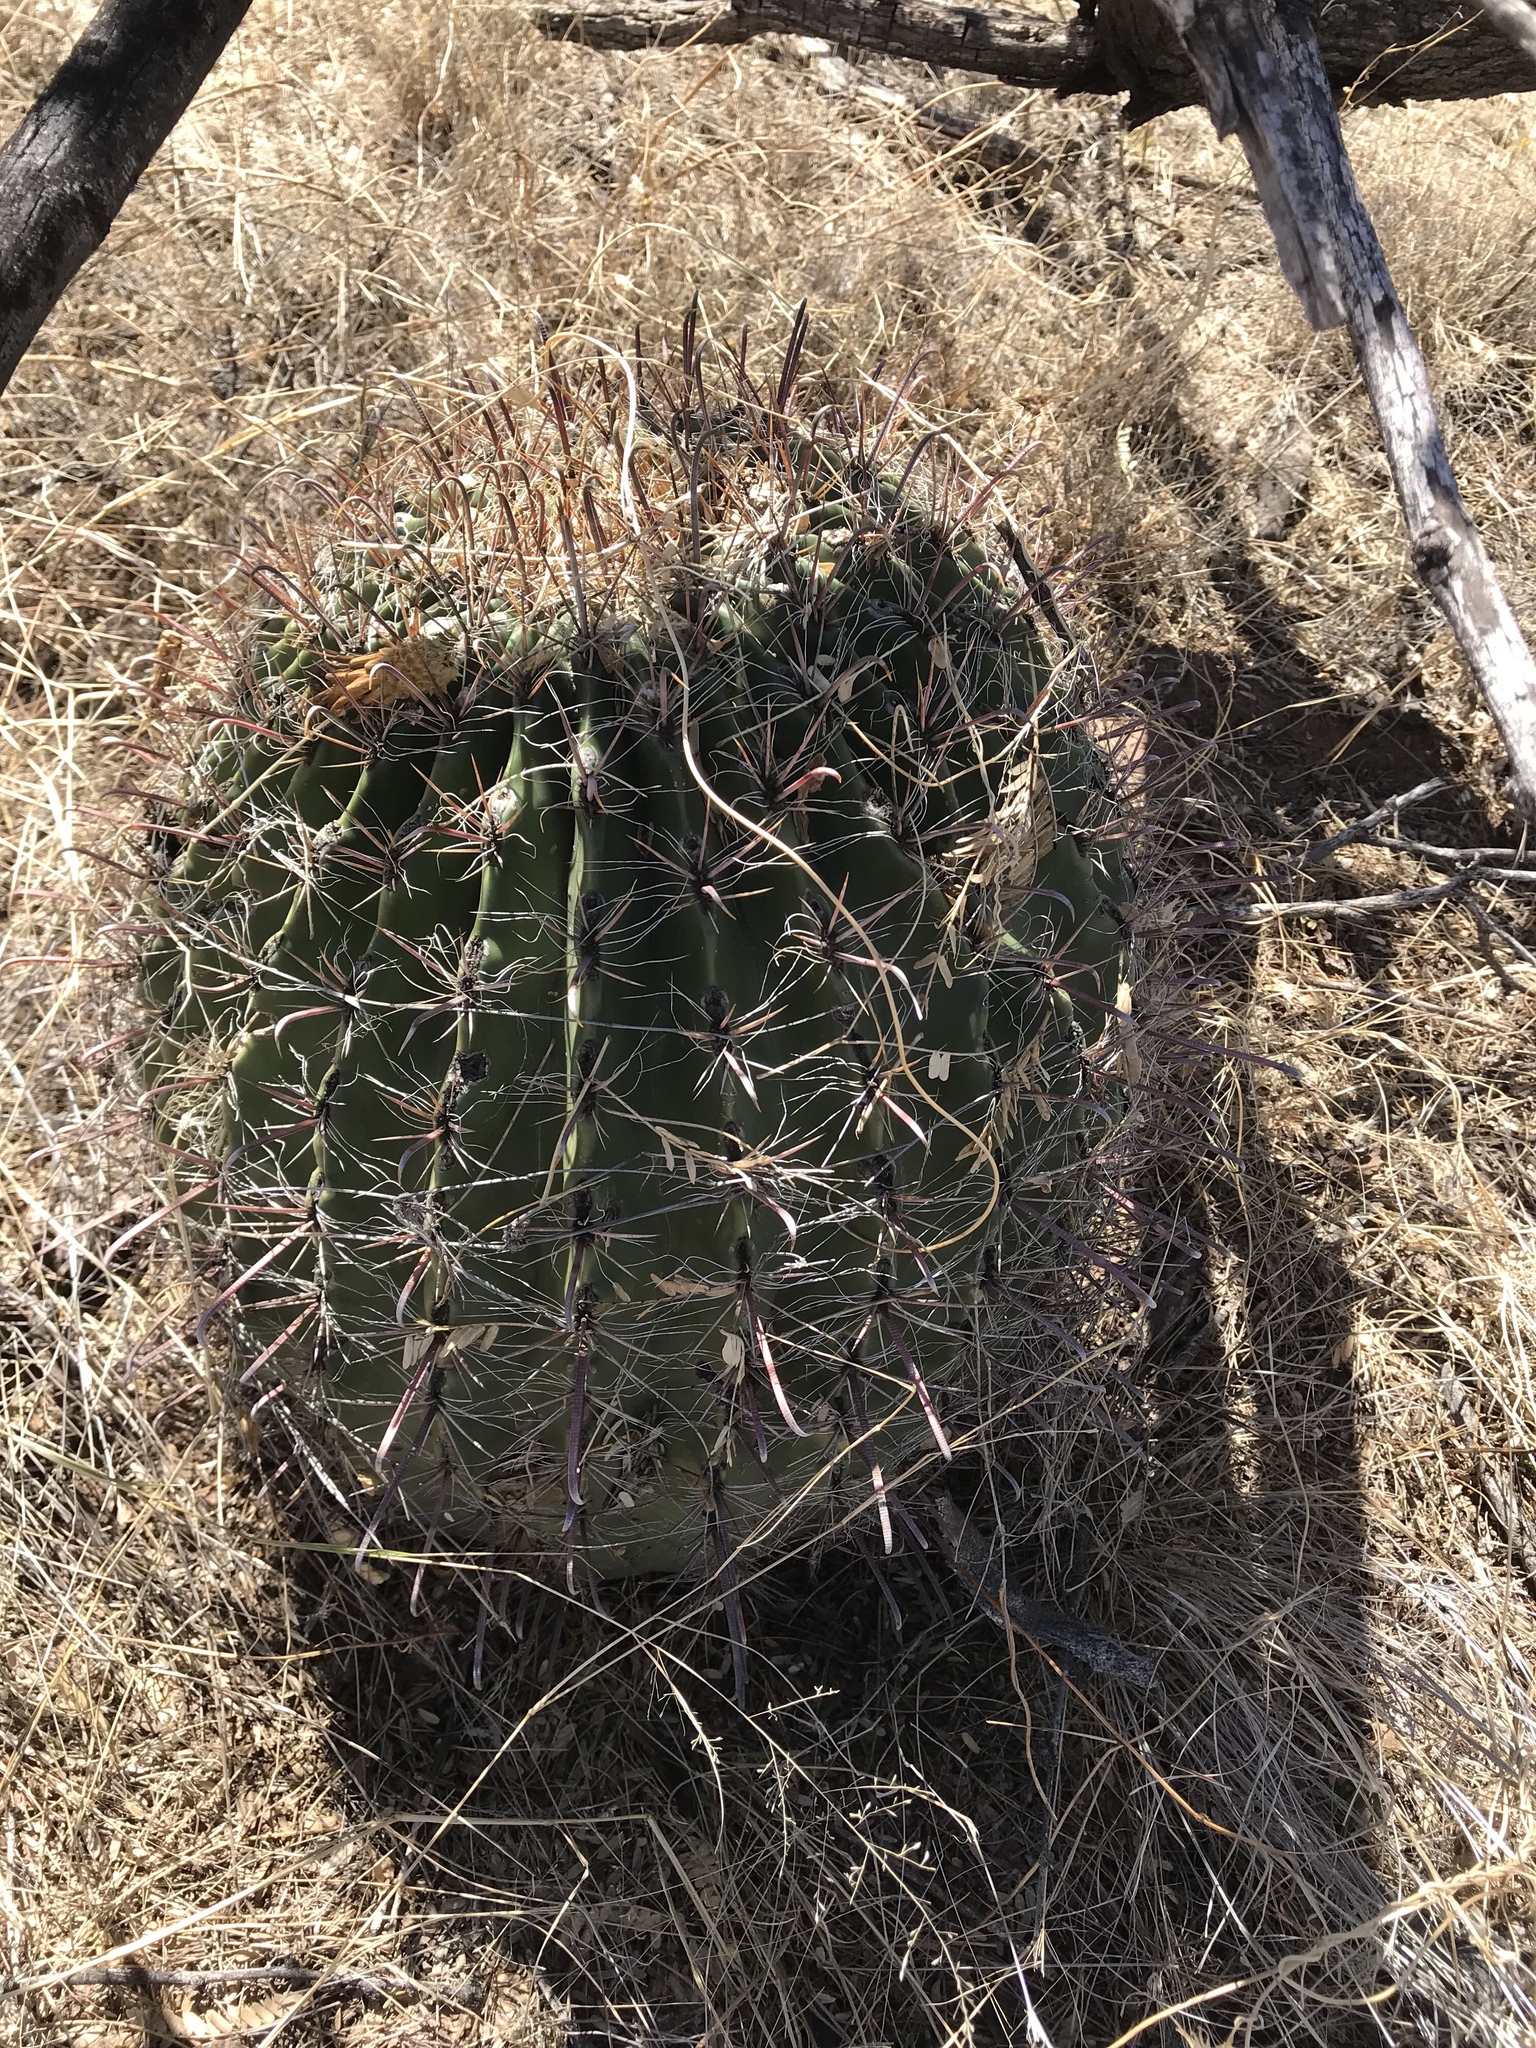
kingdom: Plantae
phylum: Tracheophyta
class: Magnoliopsida
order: Caryophyllales
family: Cactaceae
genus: Ferocactus
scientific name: Ferocactus wislizeni
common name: Candy barrel cactus
